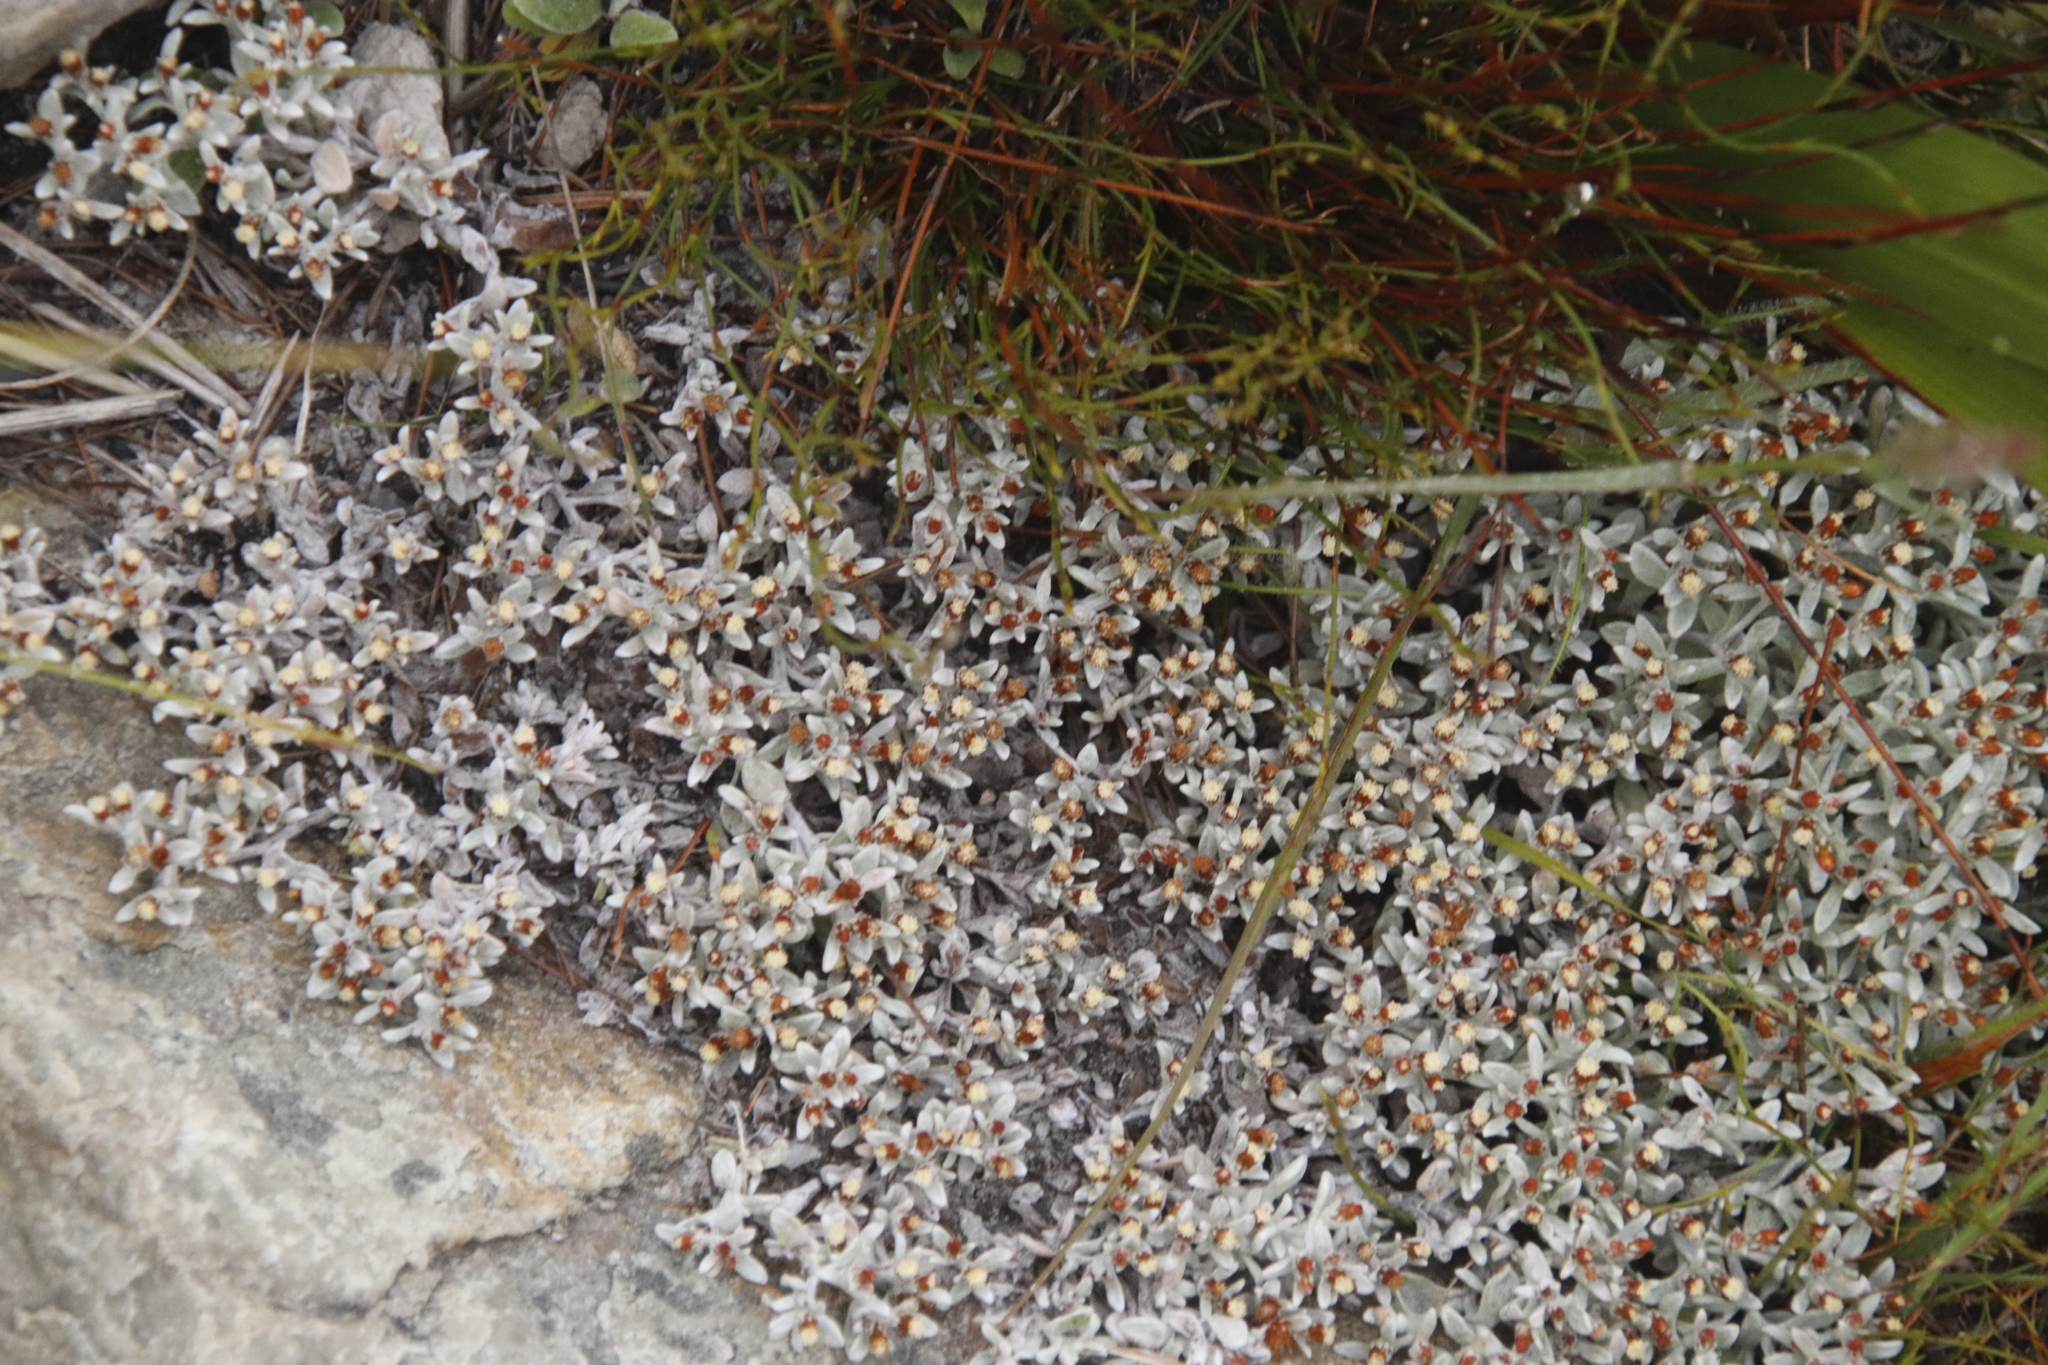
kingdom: Plantae
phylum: Tracheophyta
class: Magnoliopsida
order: Asterales
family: Asteraceae
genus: Helichrysum
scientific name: Helichrysum tinctum
